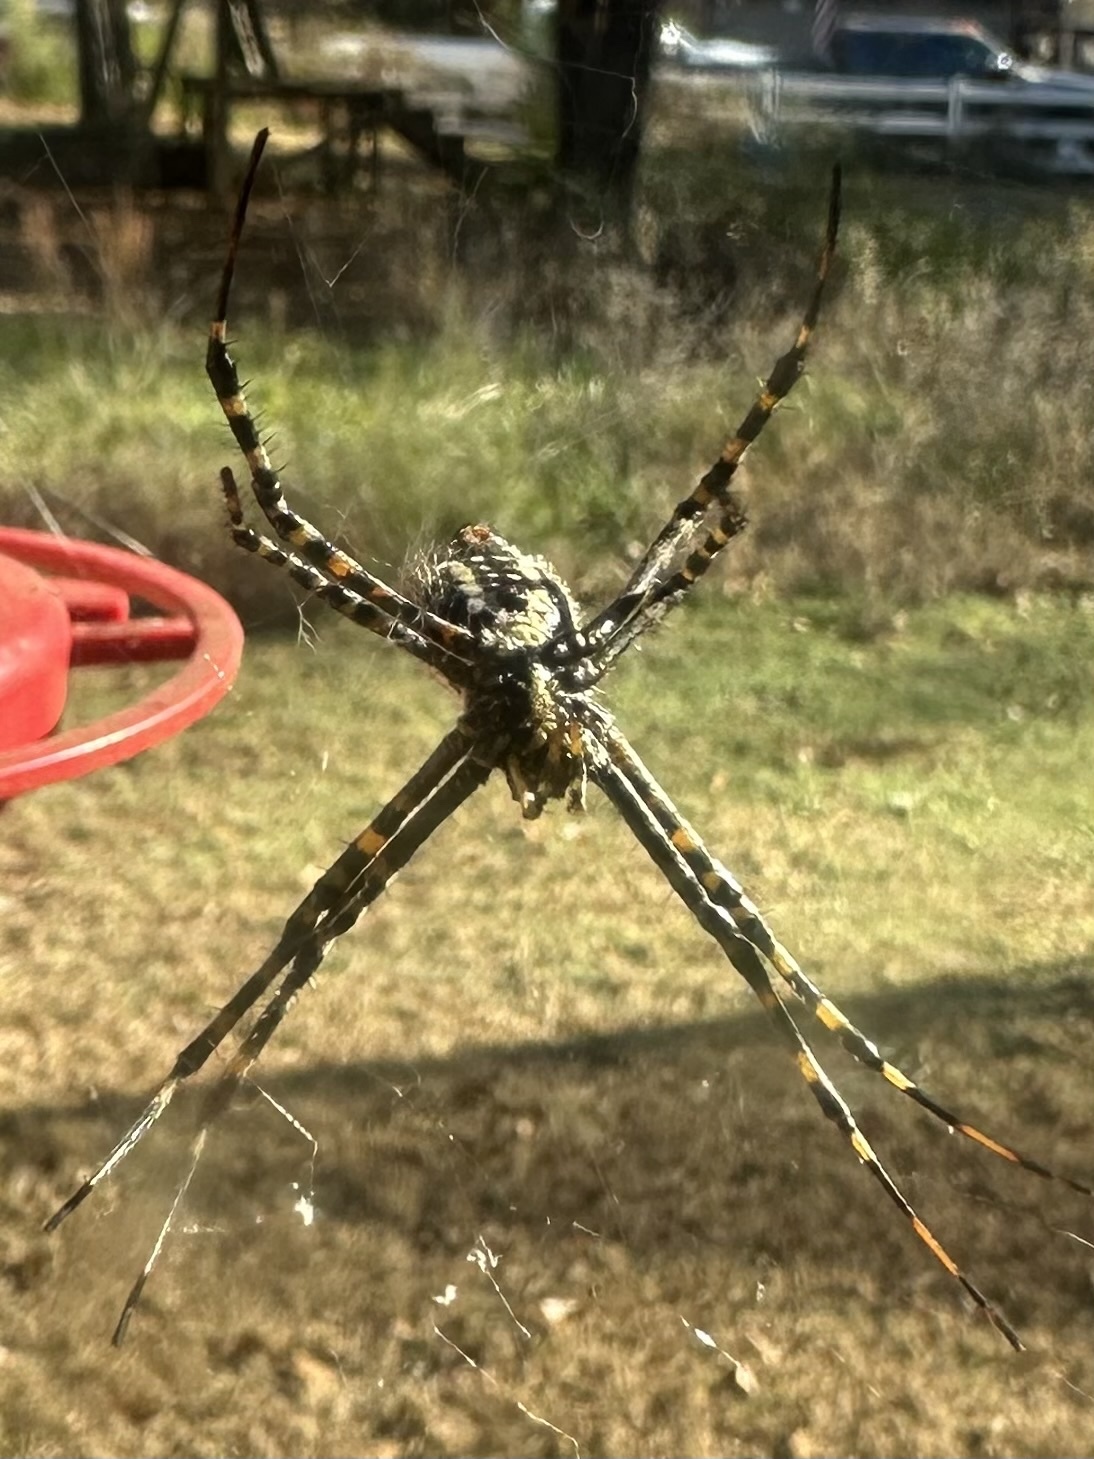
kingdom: Animalia
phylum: Arthropoda
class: Arachnida
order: Araneae
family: Araneidae
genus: Argiope
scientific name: Argiope trifasciata
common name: Banded garden spider
